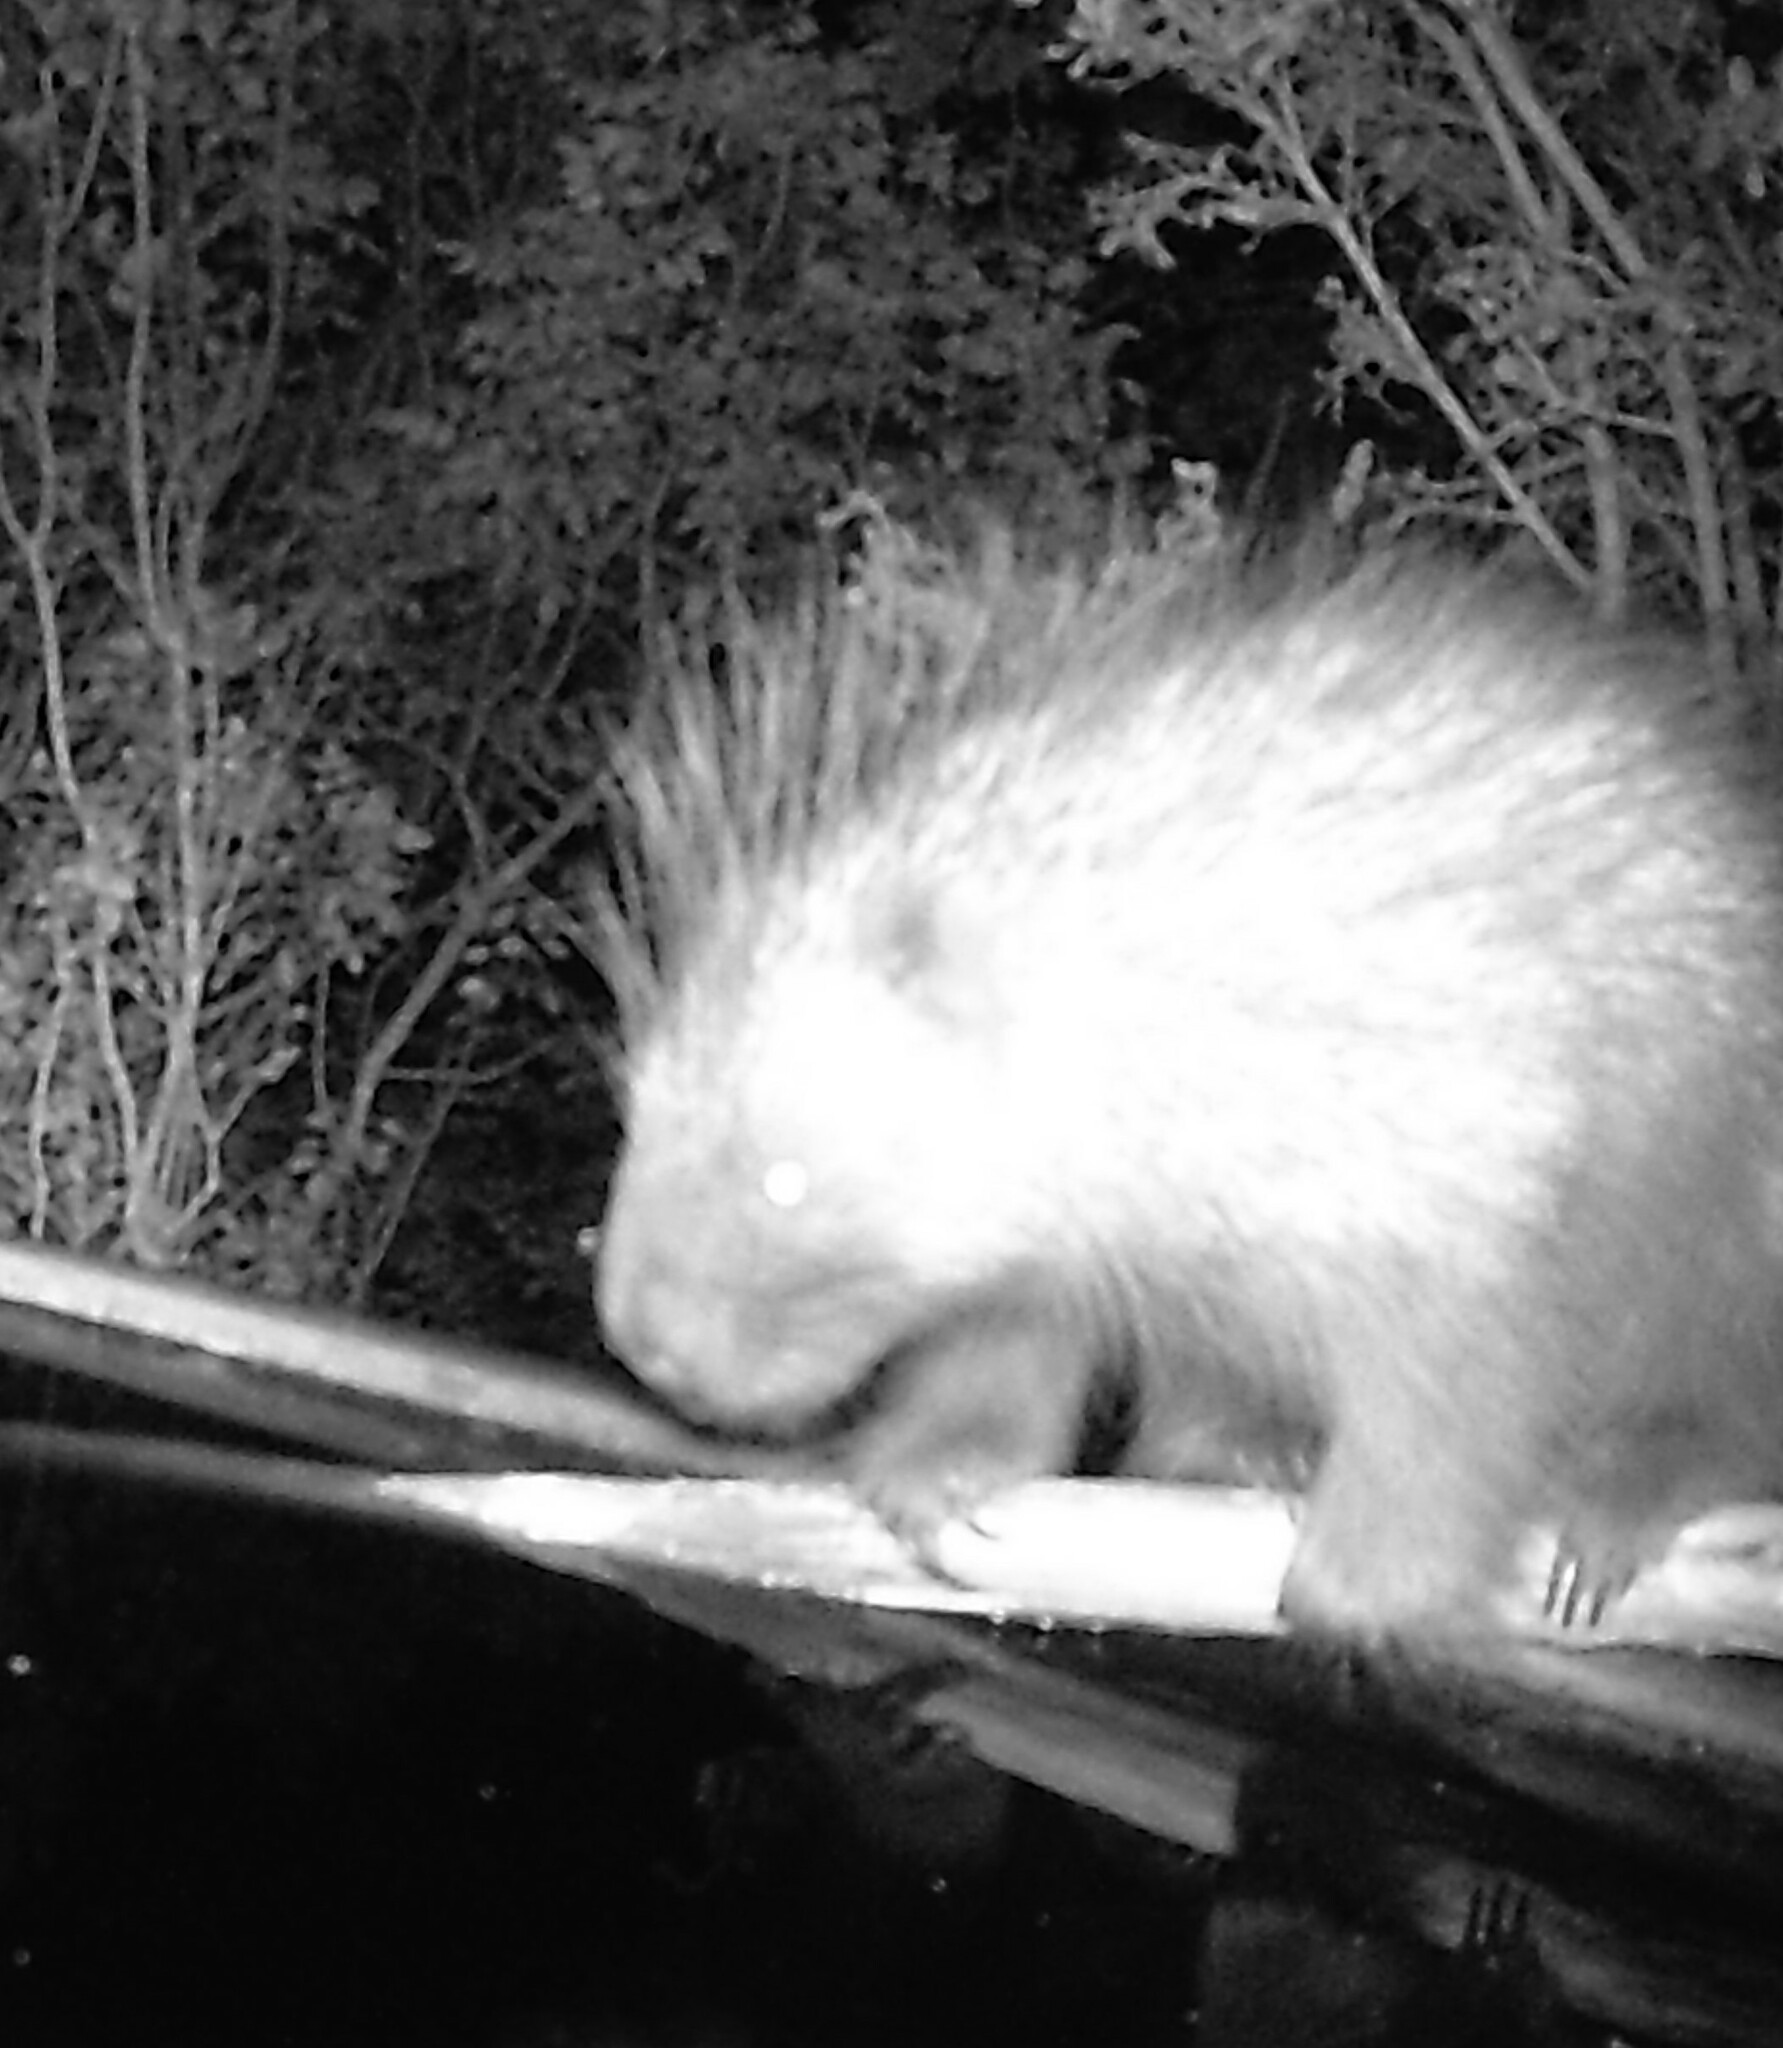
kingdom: Animalia
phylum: Chordata
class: Mammalia
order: Rodentia
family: Erethizontidae
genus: Erethizon
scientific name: Erethizon dorsatus
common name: North american porcupine
